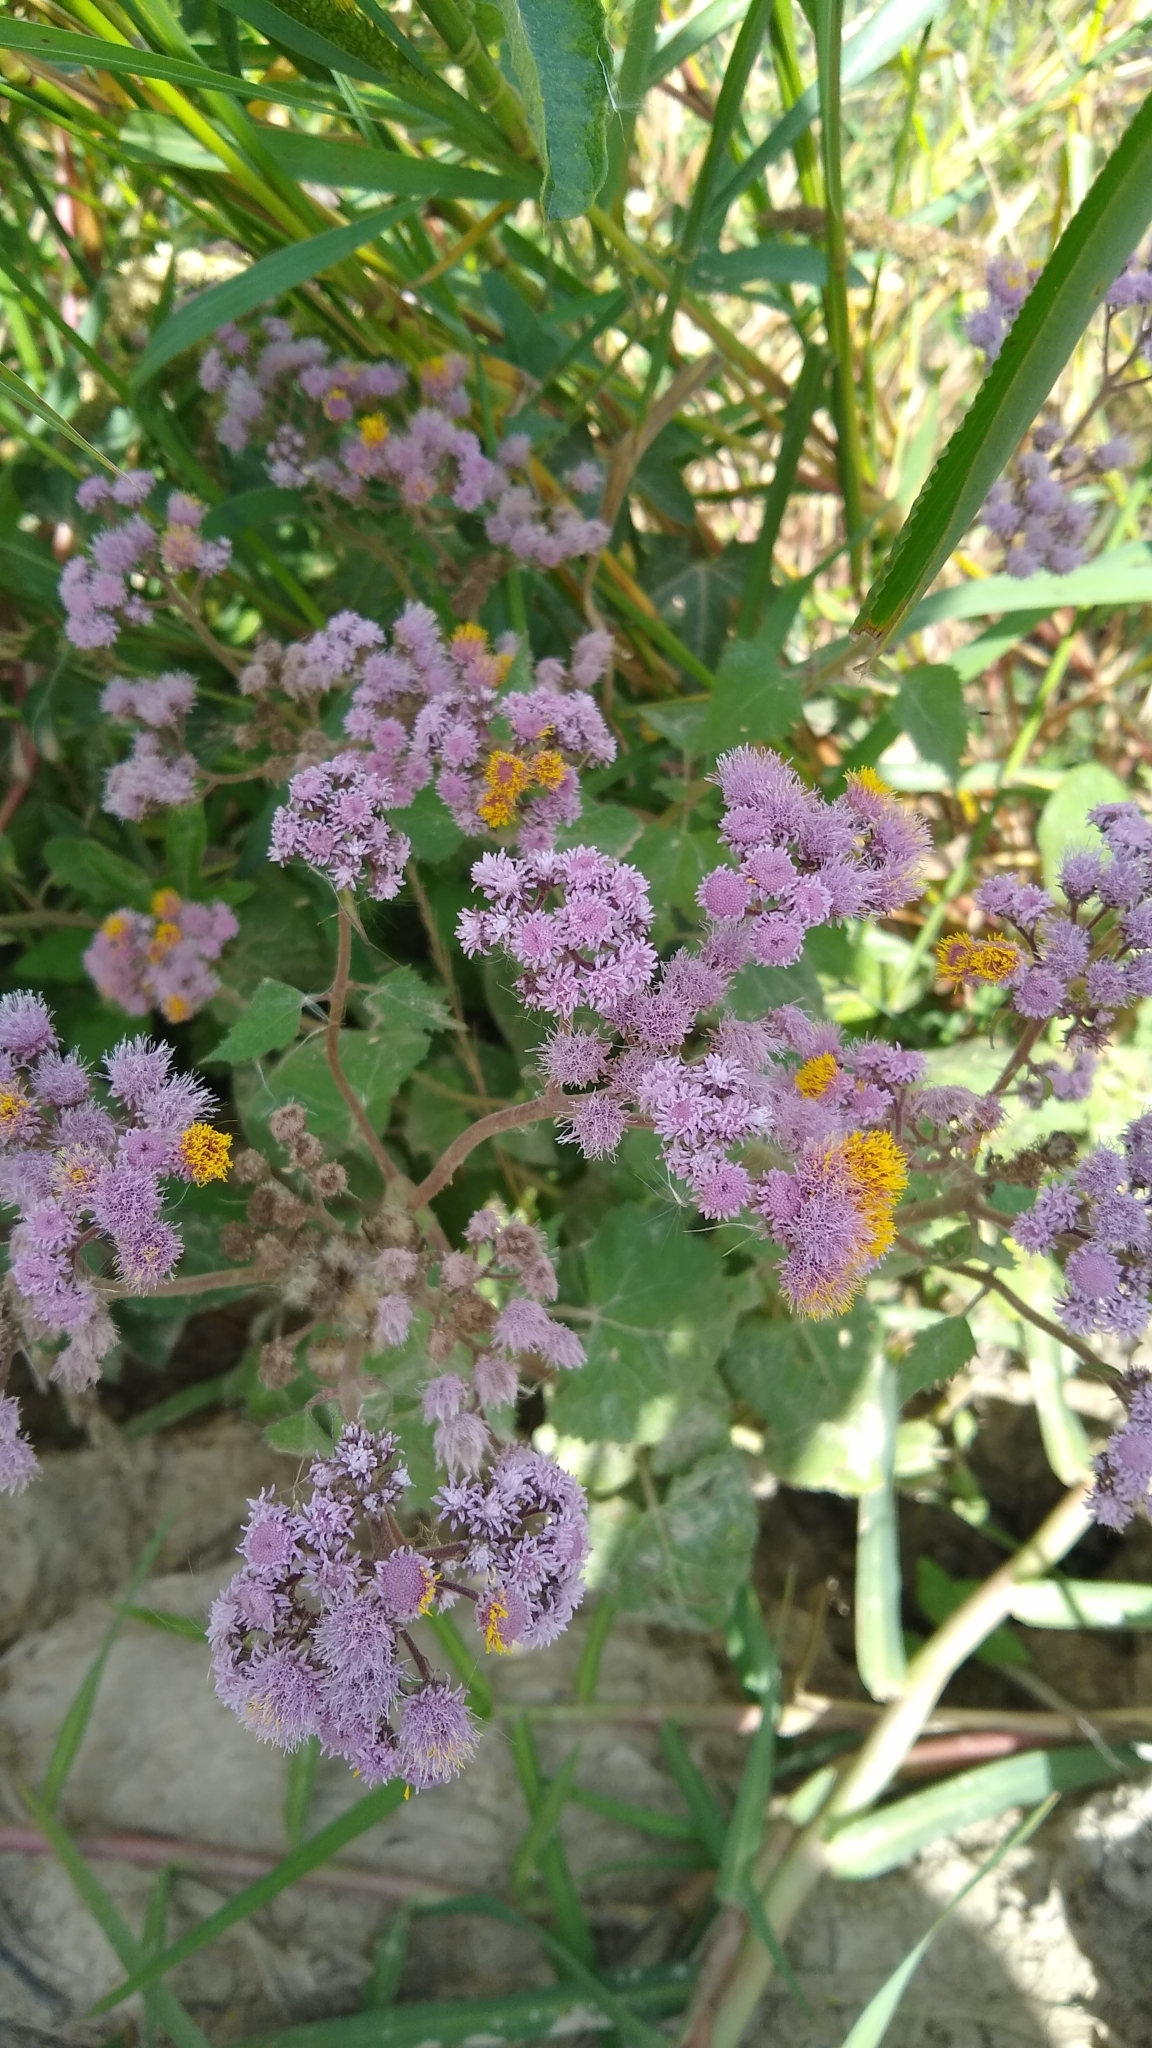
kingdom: Plantae
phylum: Tracheophyta
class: Magnoliopsida
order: Asterales
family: Asteraceae
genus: Urolepis
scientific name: Urolepis hecatantha
